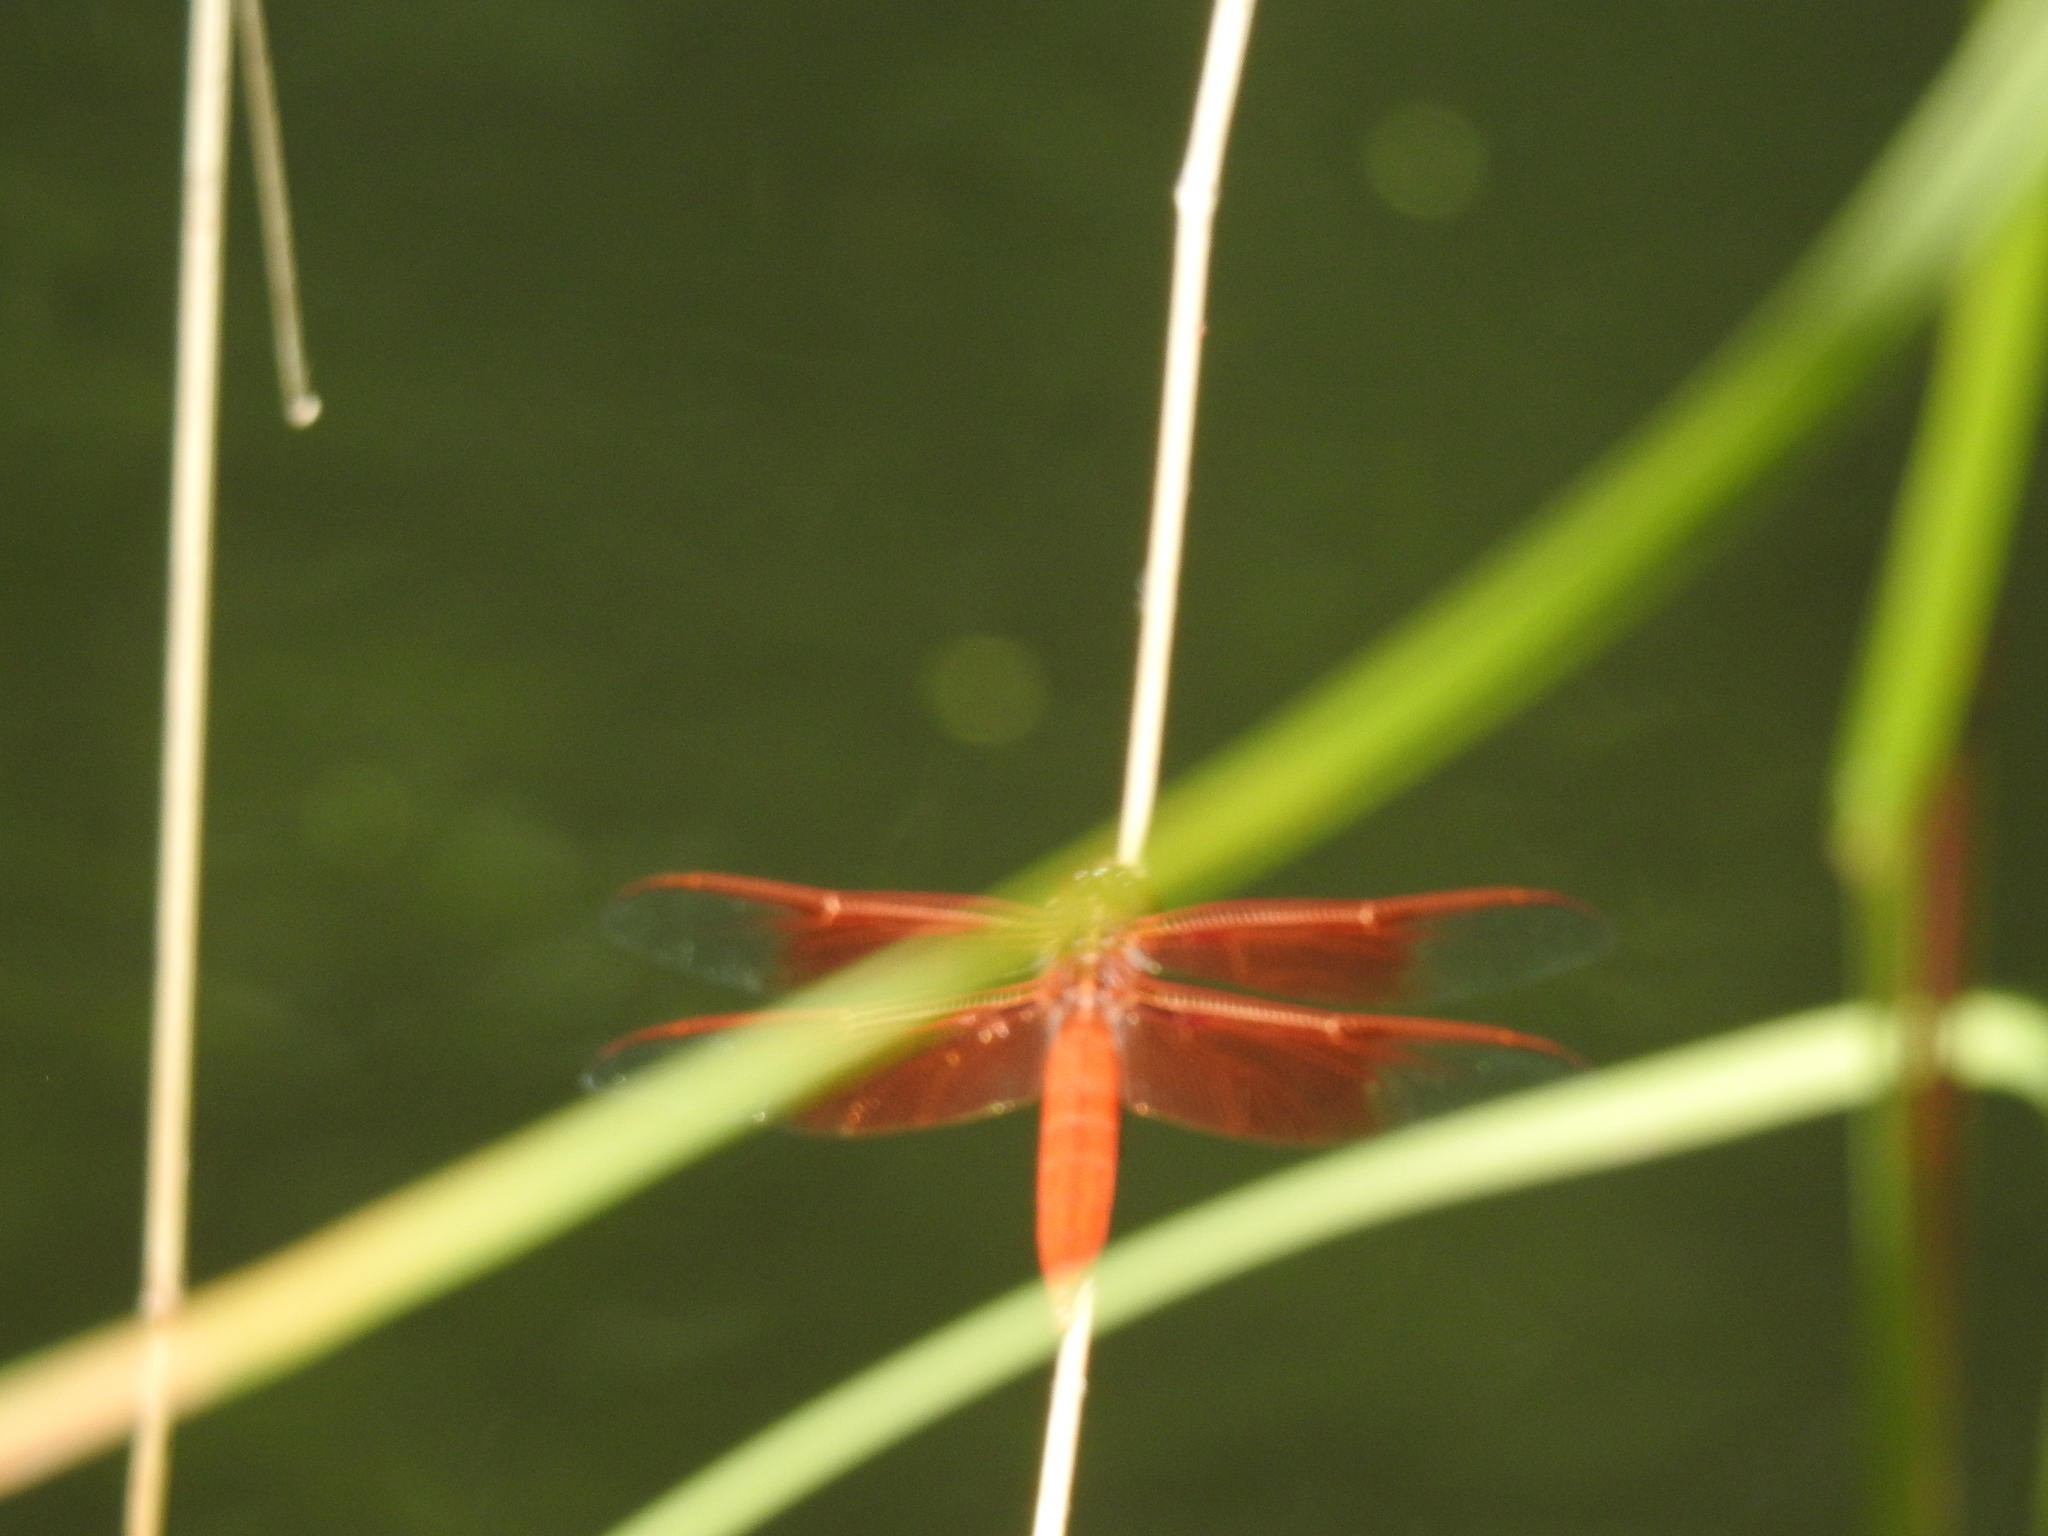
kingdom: Animalia
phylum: Arthropoda
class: Insecta
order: Odonata
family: Libellulidae
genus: Libellula
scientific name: Libellula saturata
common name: Flame skimmer
